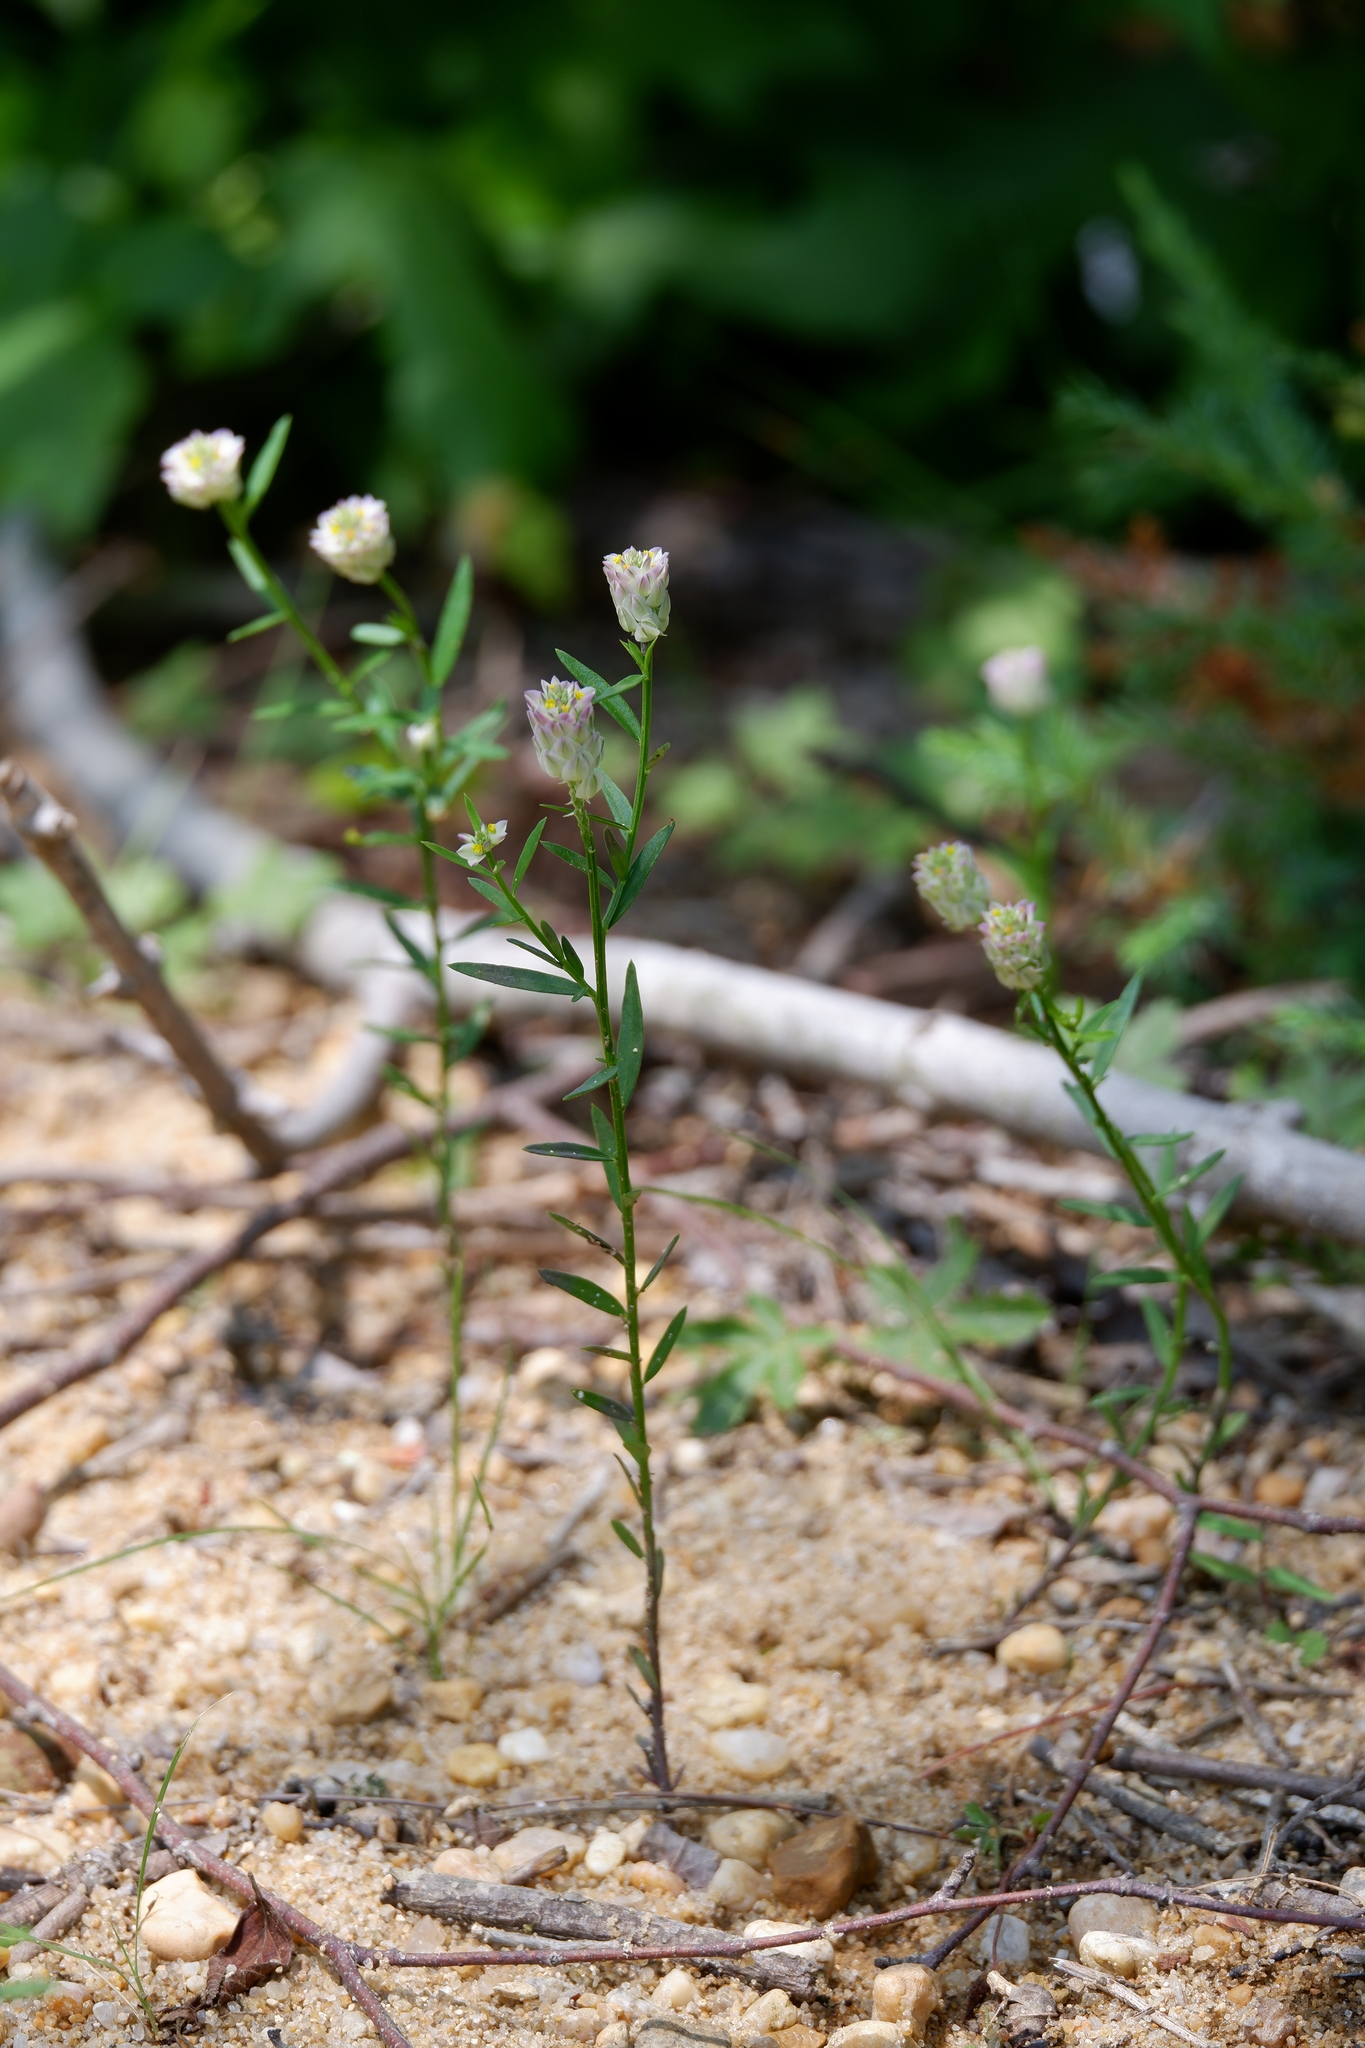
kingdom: Plantae
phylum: Tracheophyta
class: Magnoliopsida
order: Fabales
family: Polygalaceae
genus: Polygala
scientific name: Polygala sanguinea
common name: Blood milkwort
